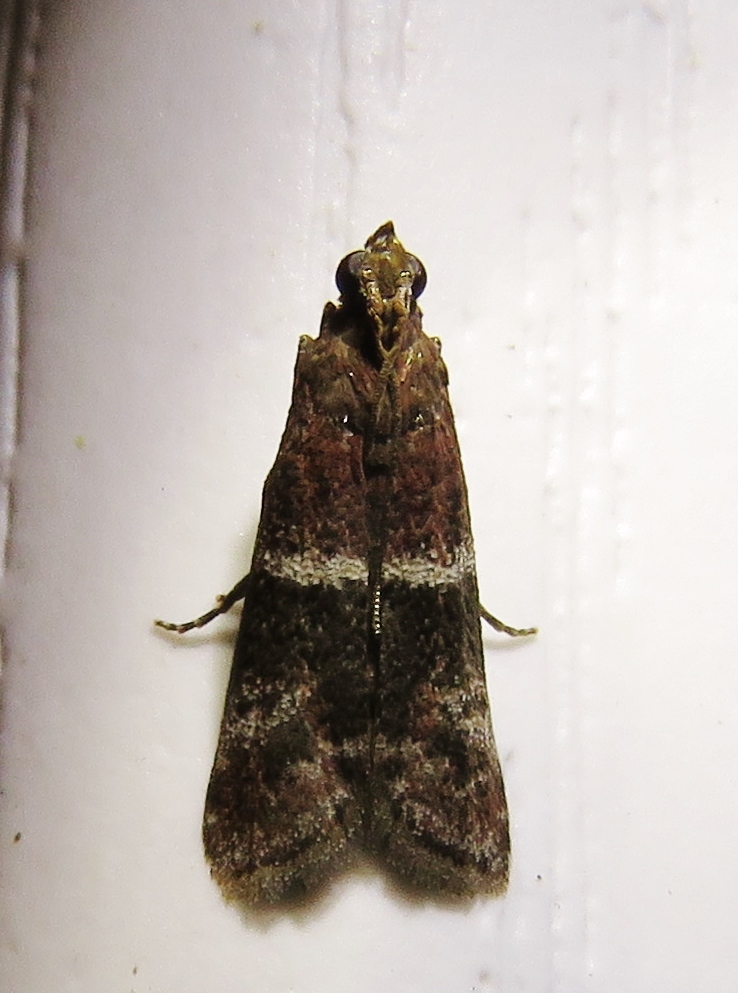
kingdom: Animalia
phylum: Arthropoda
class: Insecta
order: Lepidoptera
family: Pyralidae
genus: Moodna
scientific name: Moodna ostrinella
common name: Darker moodna moth
